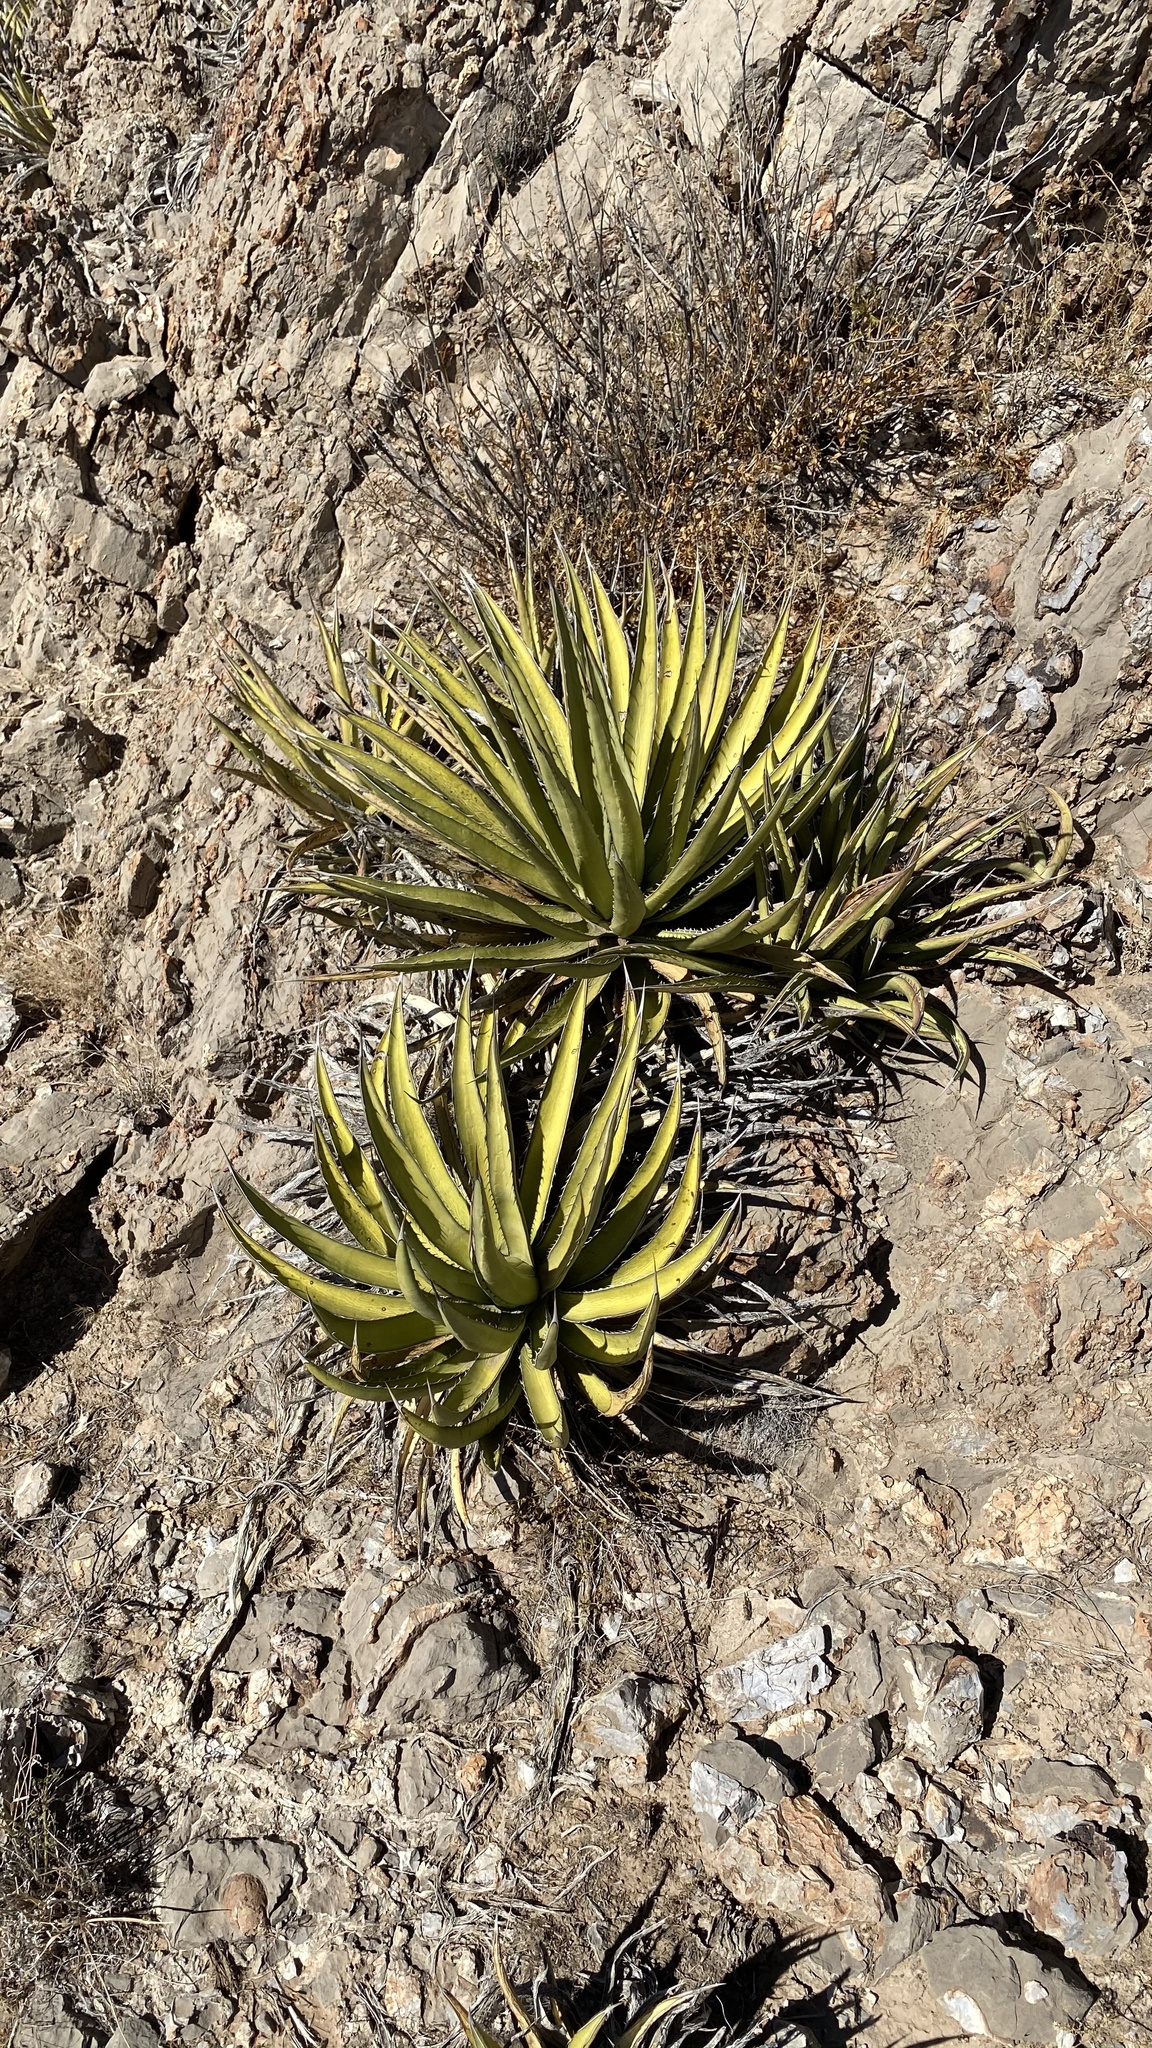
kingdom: Plantae
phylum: Tracheophyta
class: Liliopsida
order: Asparagales
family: Asparagaceae
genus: Agave
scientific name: Agave lechuguilla
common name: Lecheguilla agave
